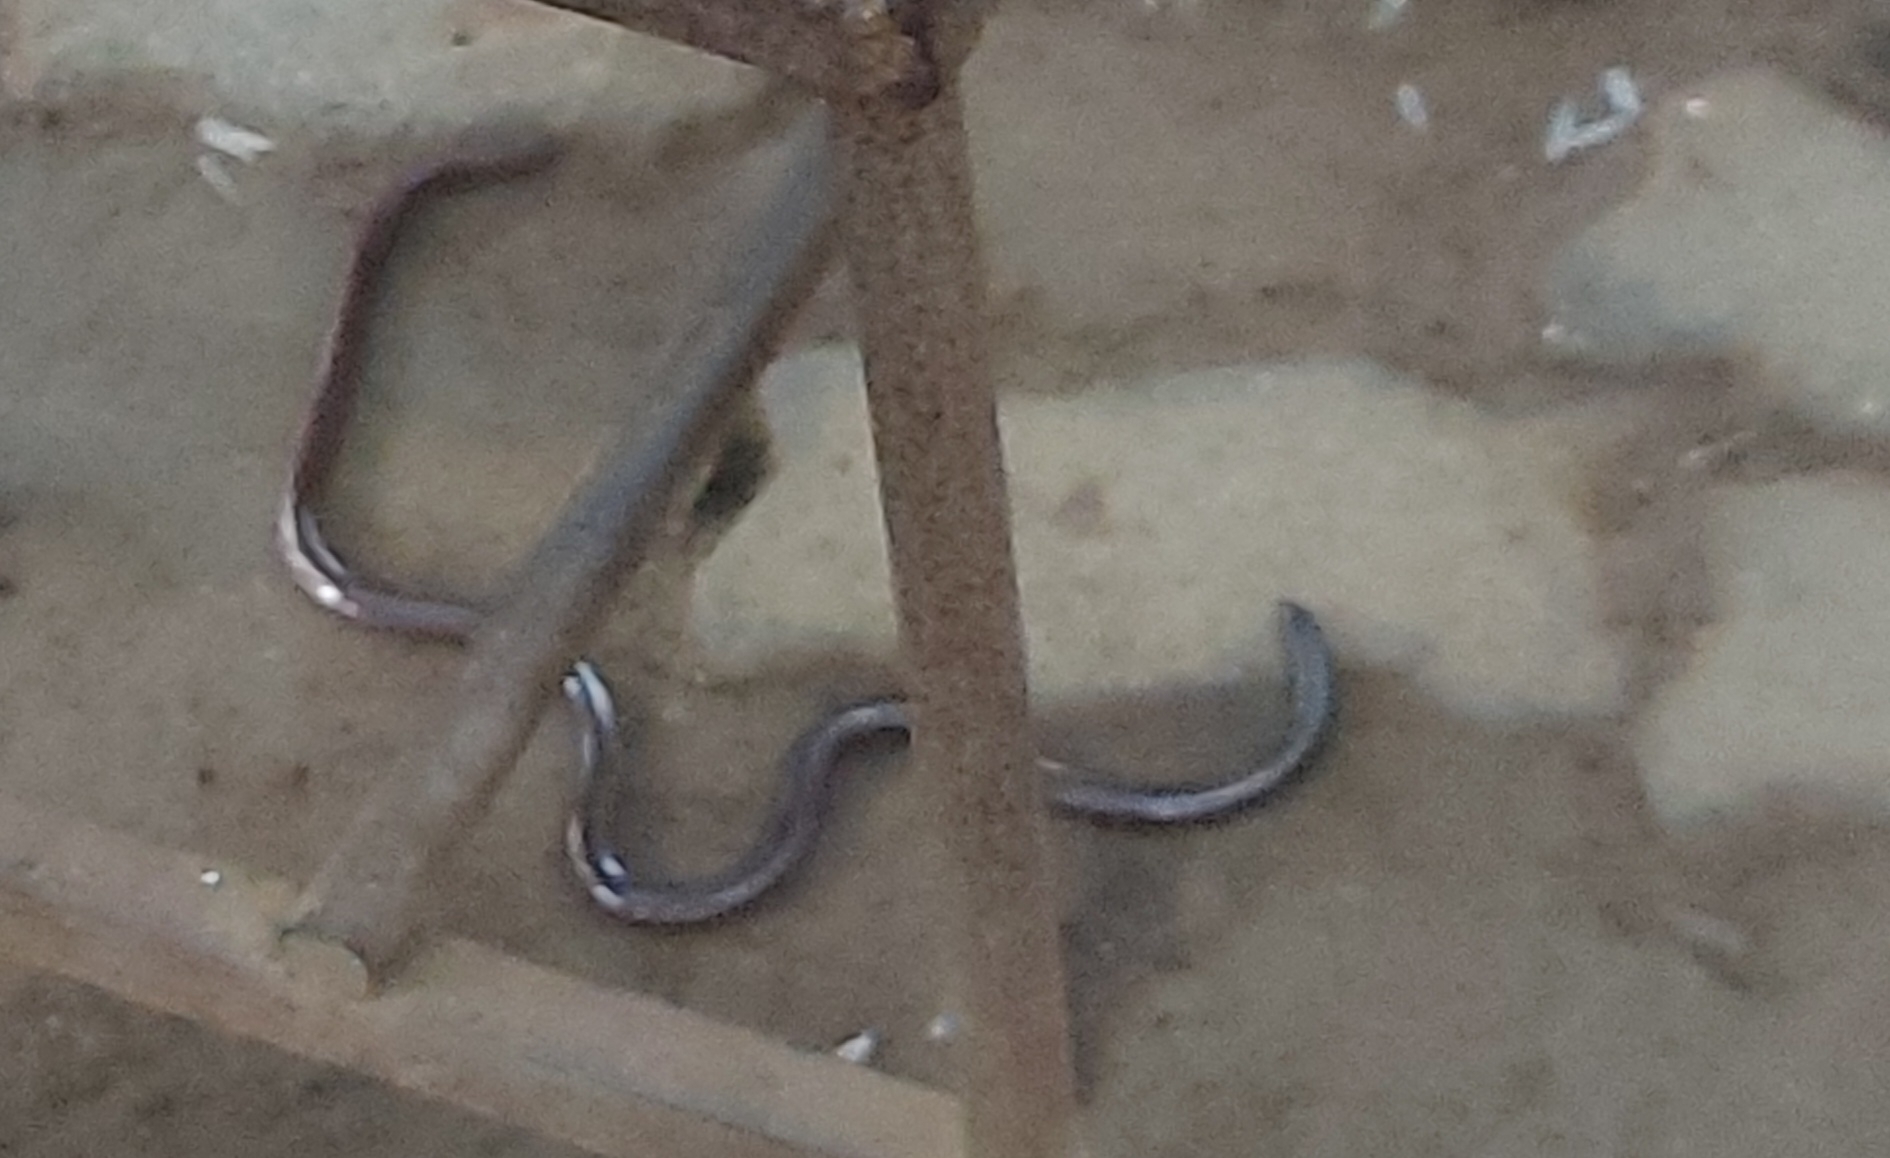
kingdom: Animalia
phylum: Chordata
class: Squamata
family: Typhlopidae
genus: Indotyphlops
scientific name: Indotyphlops braminus
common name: Brahminy blindsnake
